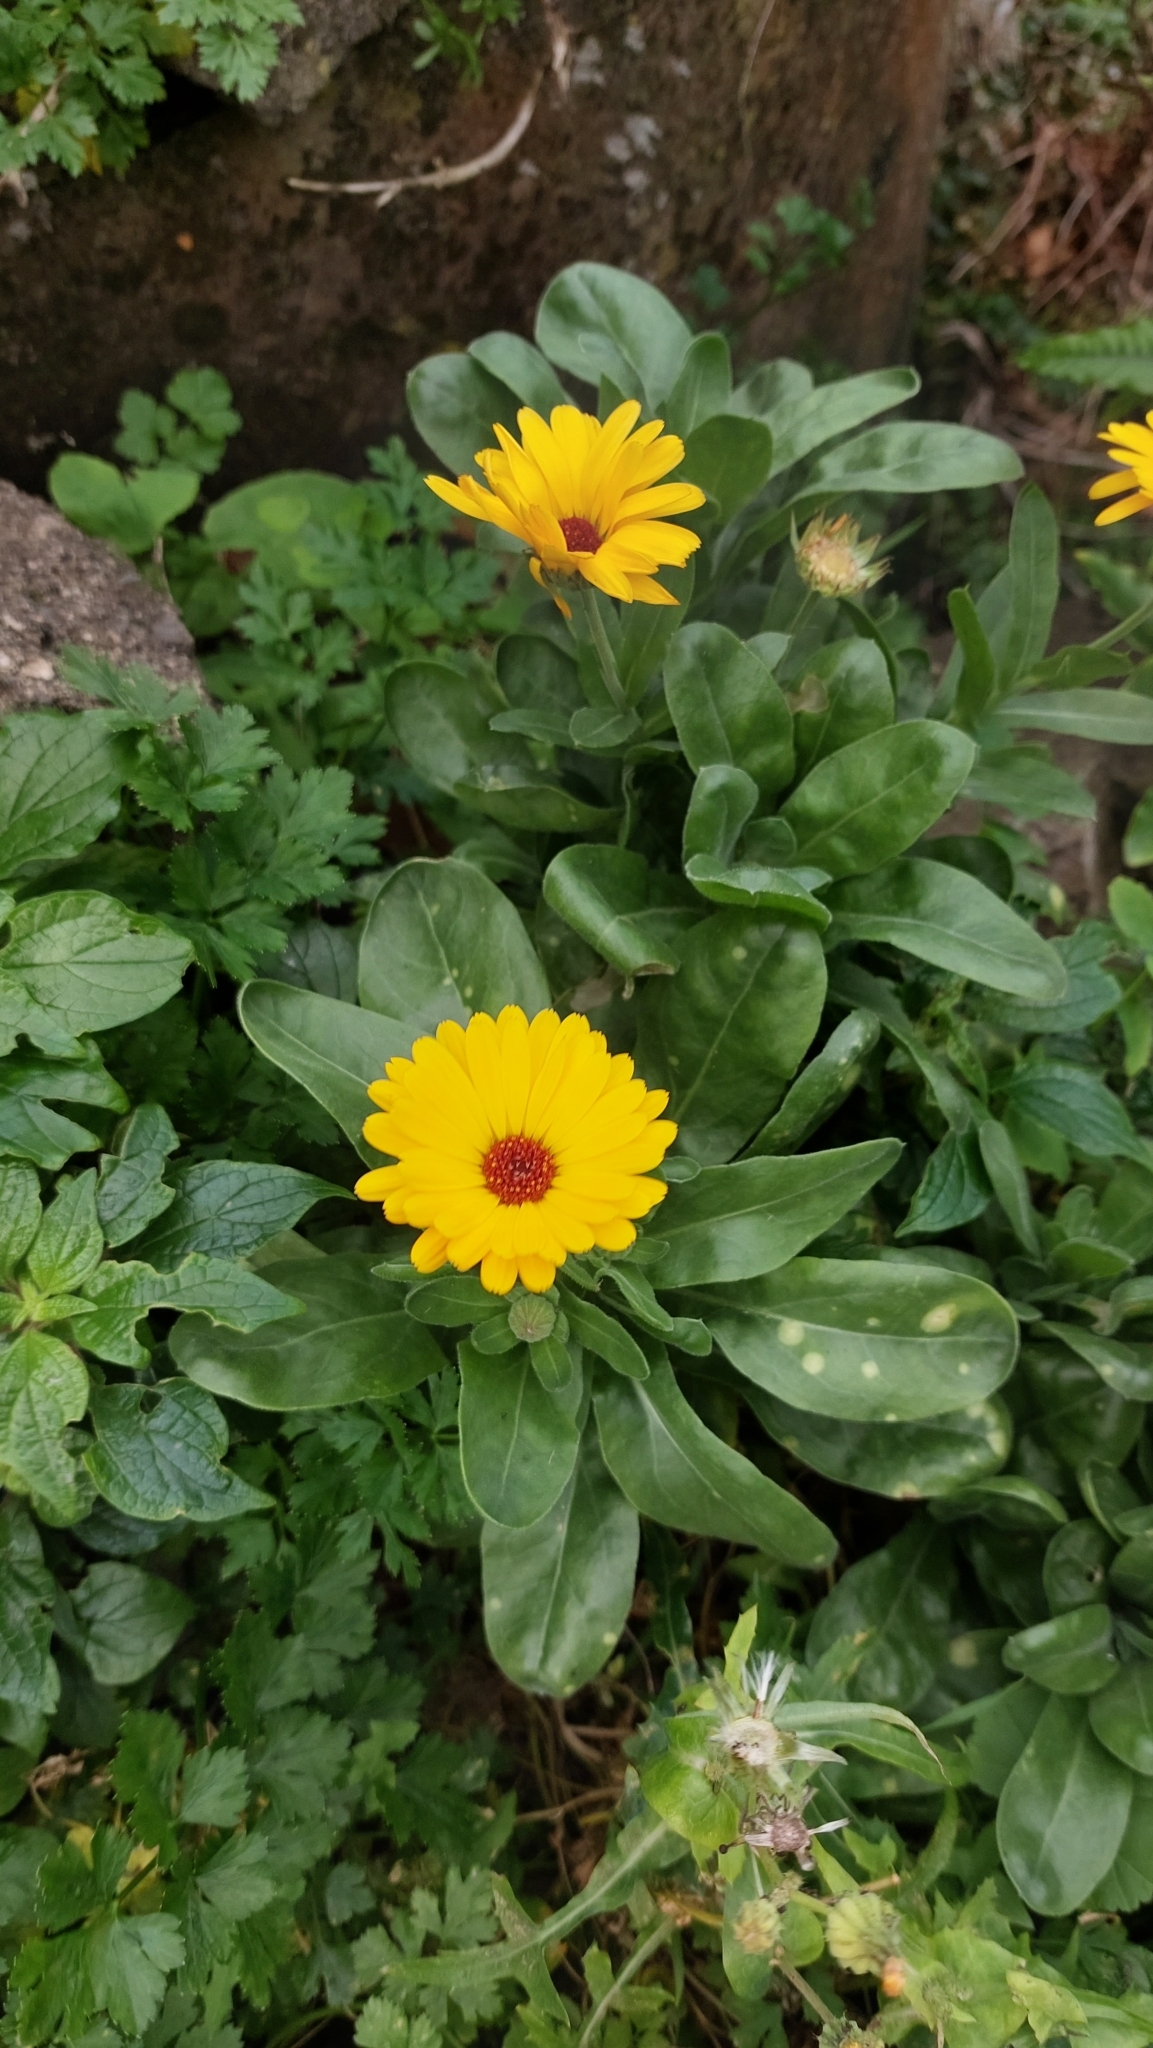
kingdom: Plantae
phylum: Tracheophyta
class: Magnoliopsida
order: Asterales
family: Asteraceae
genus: Calendula
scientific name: Calendula officinalis
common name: Pot marigold
